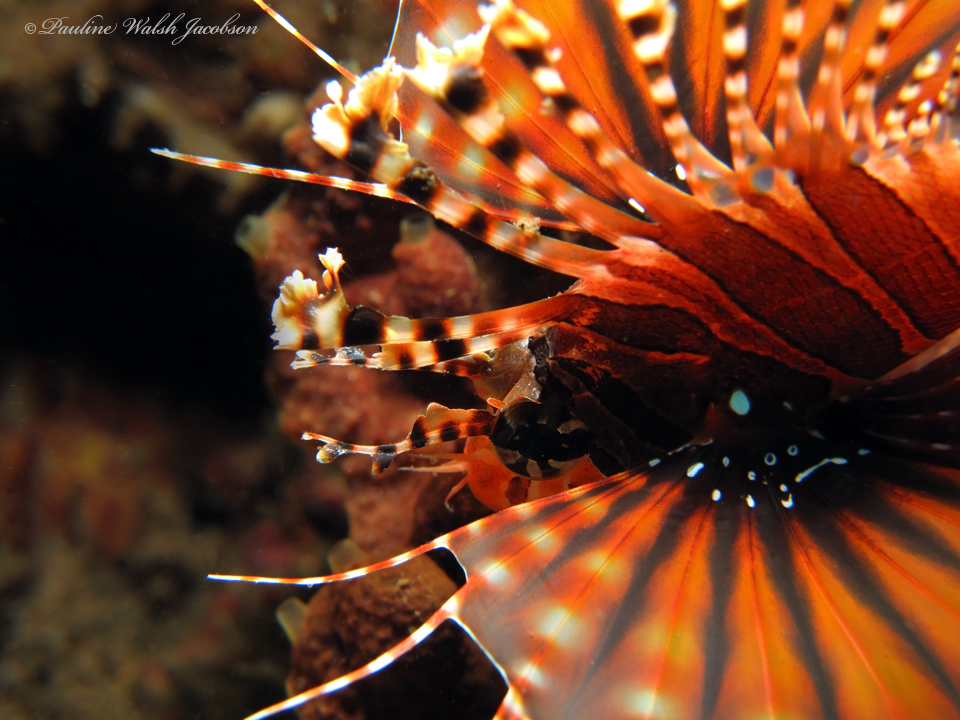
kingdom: Animalia
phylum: Chordata
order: Scorpaeniformes
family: Scorpaenidae
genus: Dendrochirus
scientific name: Dendrochirus zebra
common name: Zebra lionfish
